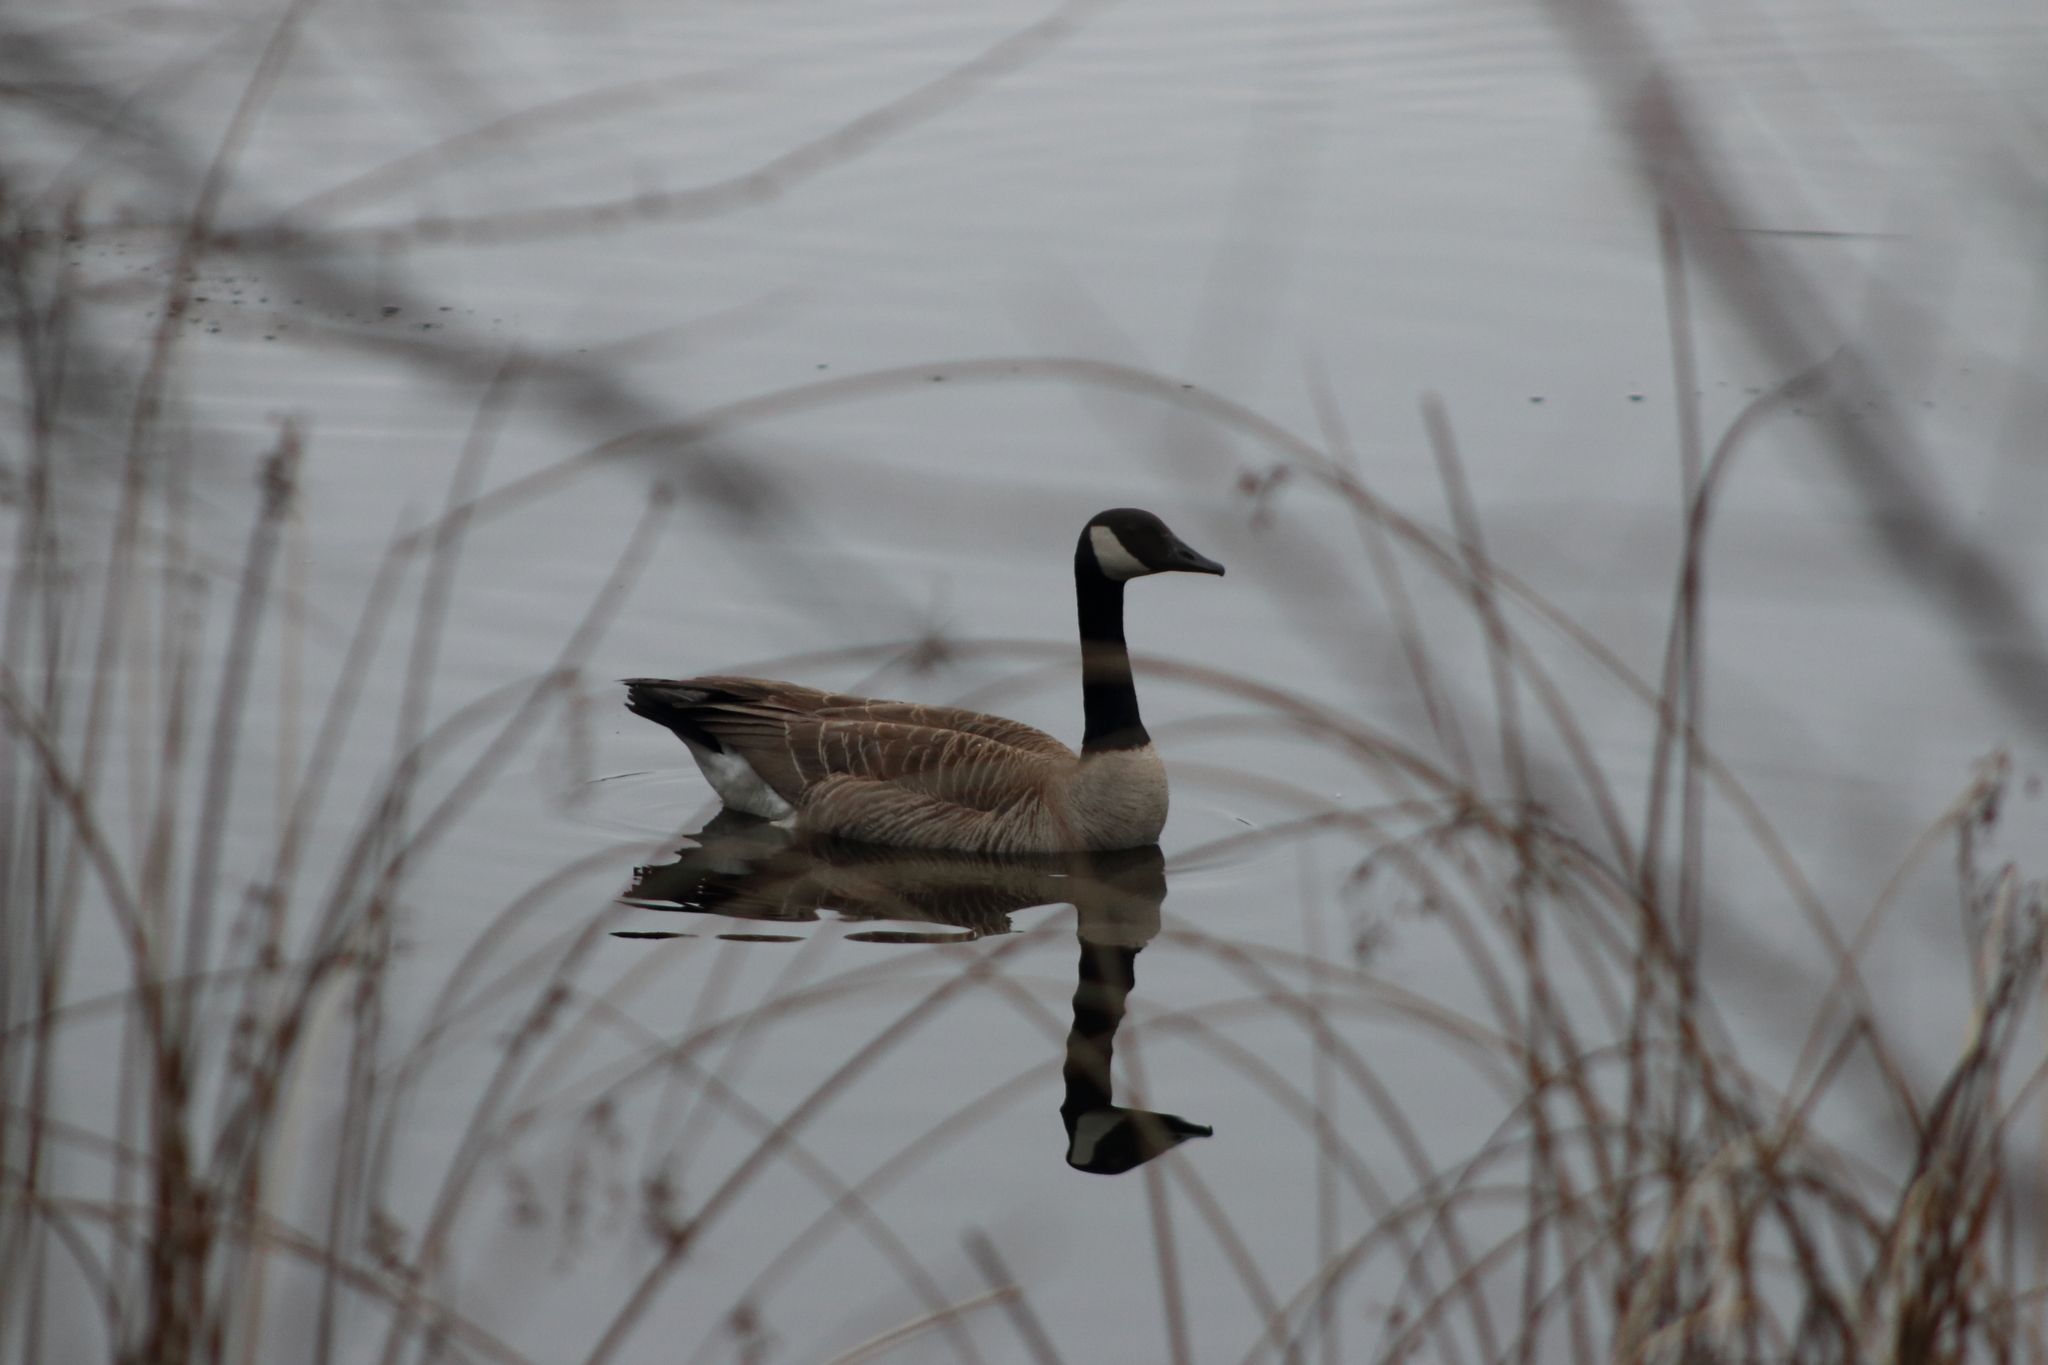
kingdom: Animalia
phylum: Chordata
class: Aves
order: Anseriformes
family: Anatidae
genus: Branta
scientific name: Branta canadensis
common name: Canada goose
